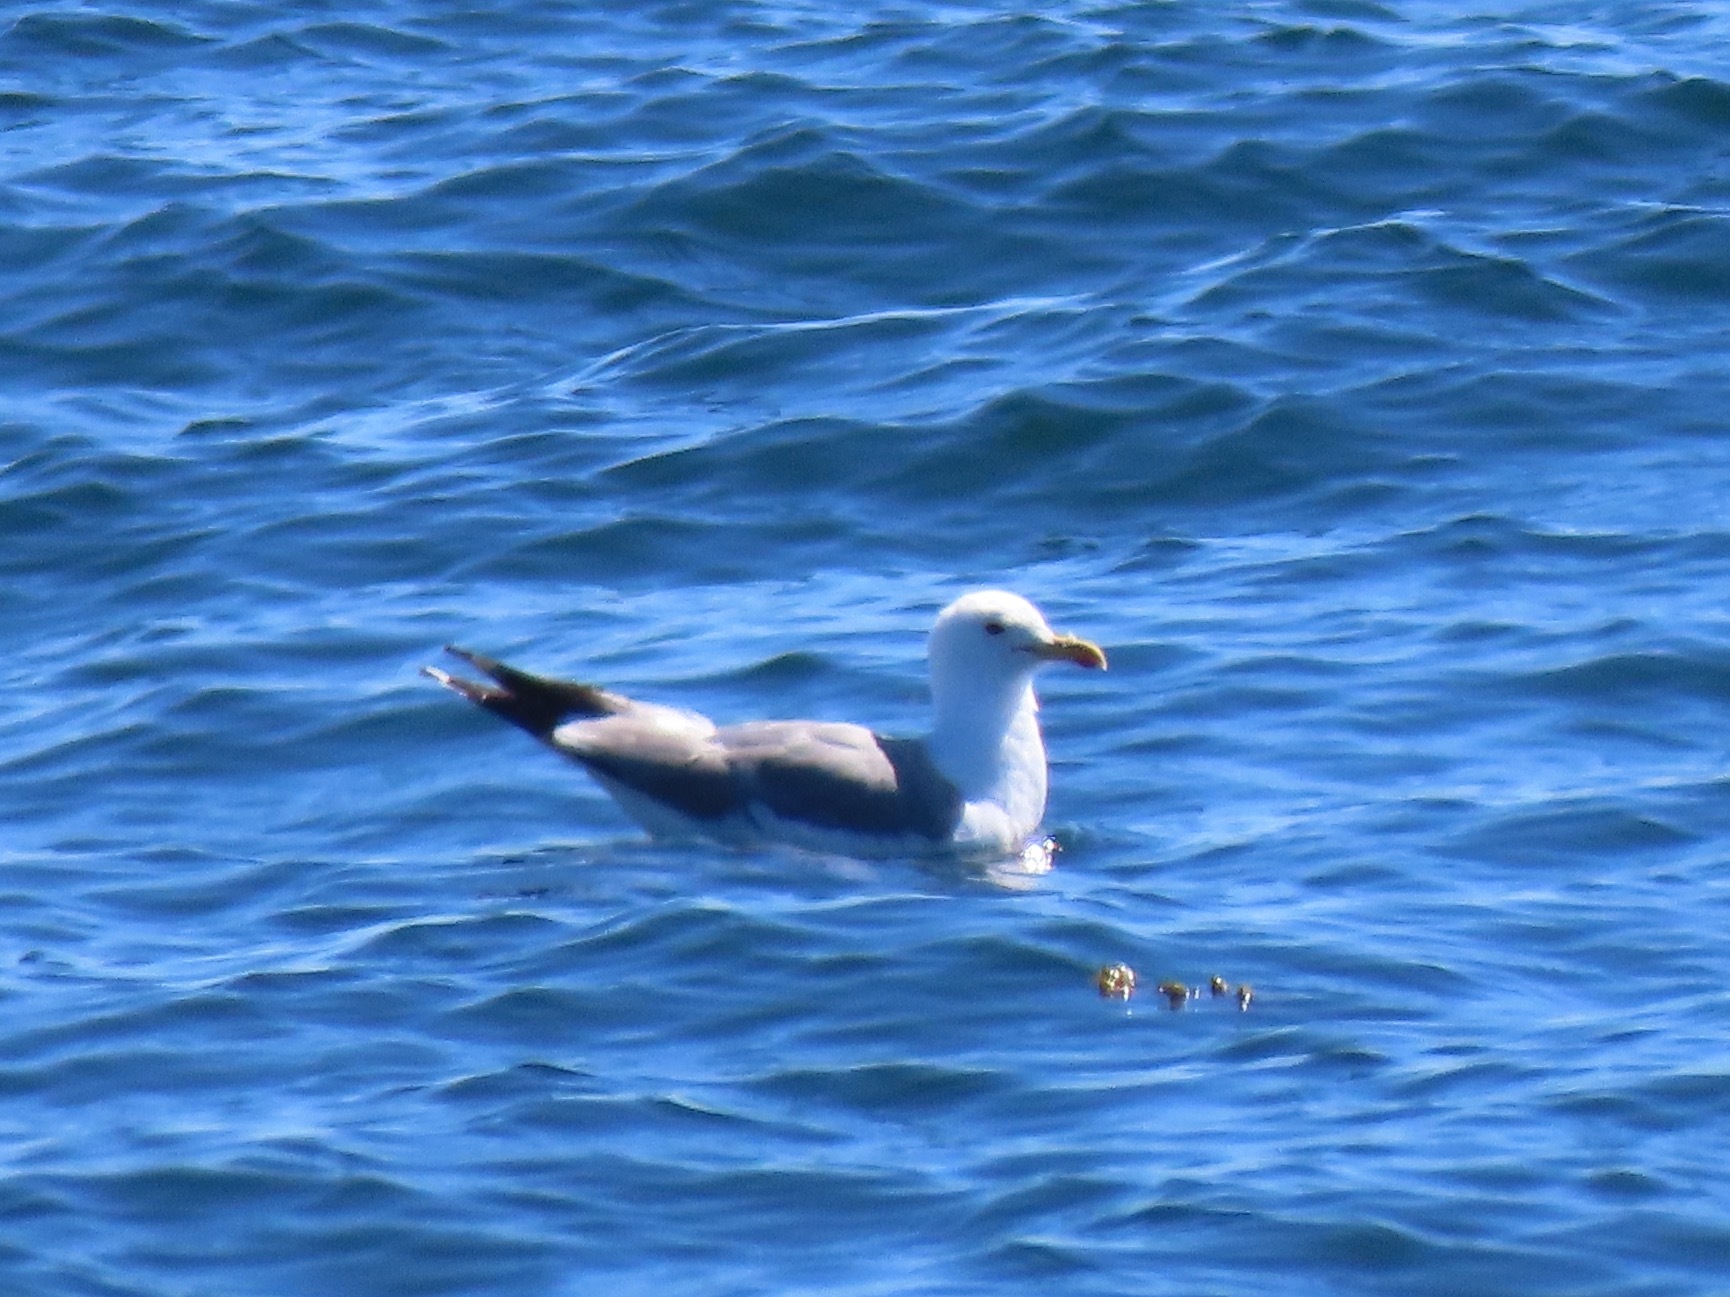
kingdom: Animalia
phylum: Chordata
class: Aves
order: Charadriiformes
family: Laridae
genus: Larus
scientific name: Larus californicus
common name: California gull
